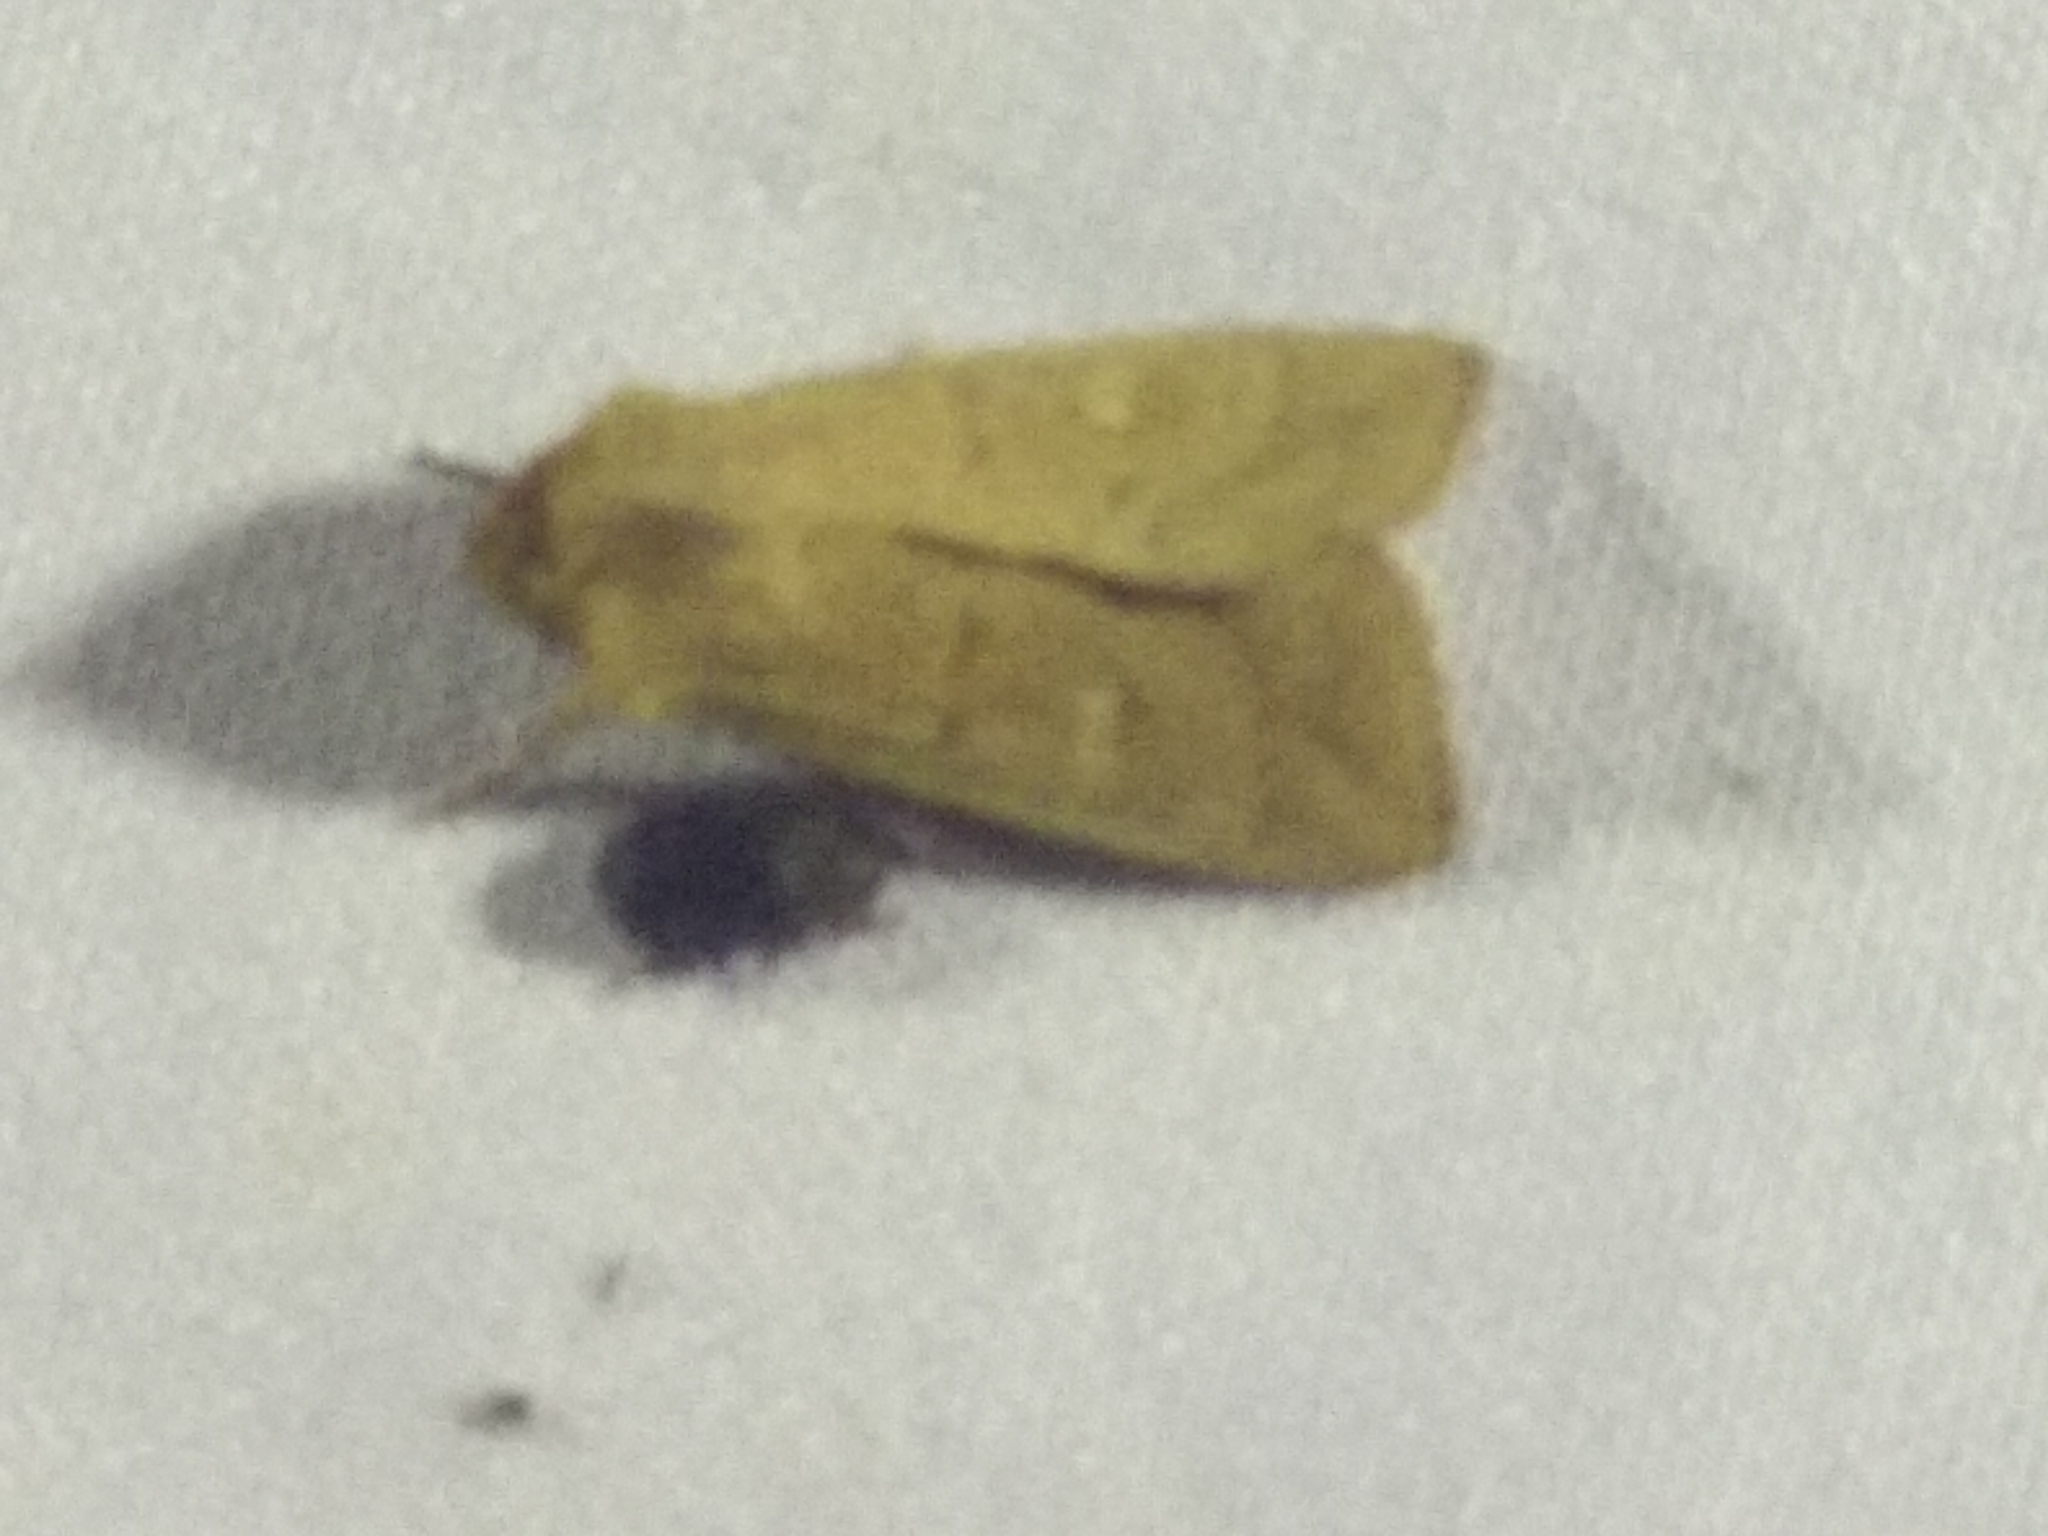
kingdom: Animalia
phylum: Arthropoda
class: Insecta
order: Lepidoptera
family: Noctuidae
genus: Mythimna
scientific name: Mythimna ferrago
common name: Clay
